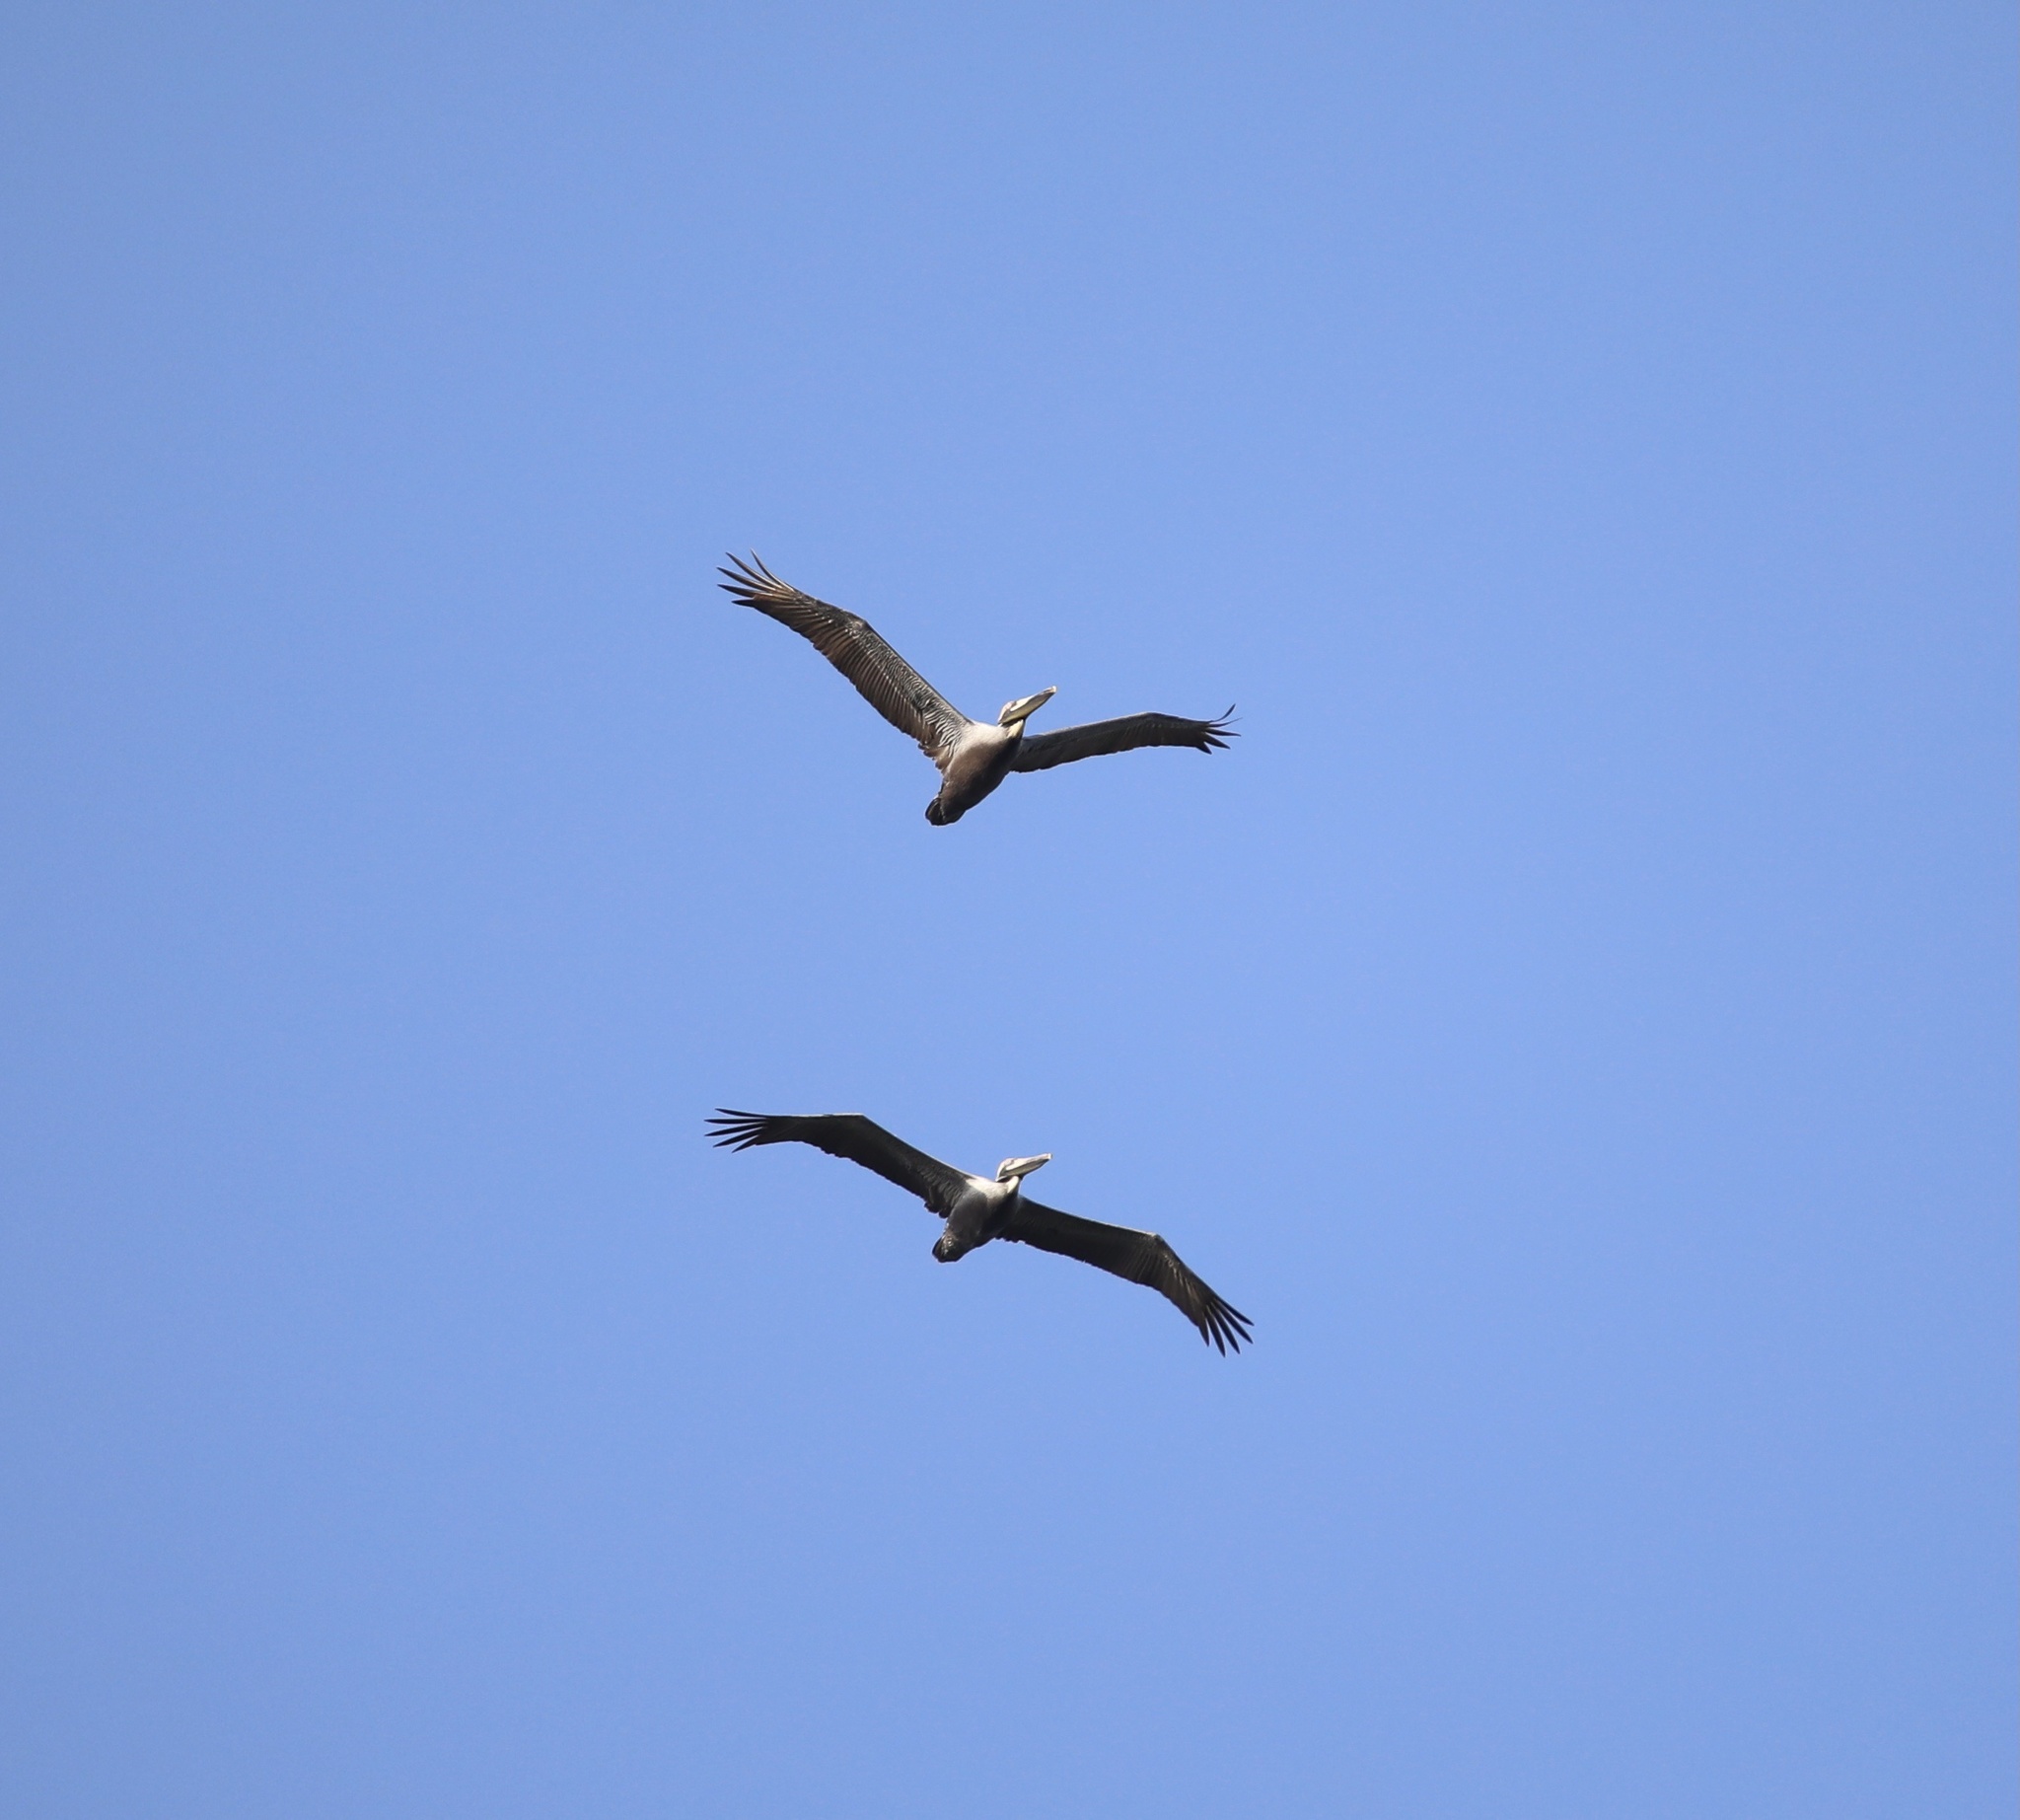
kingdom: Animalia
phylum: Chordata
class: Aves
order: Pelecaniformes
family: Pelecanidae
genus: Pelecanus
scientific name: Pelecanus occidentalis
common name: Brown pelican
